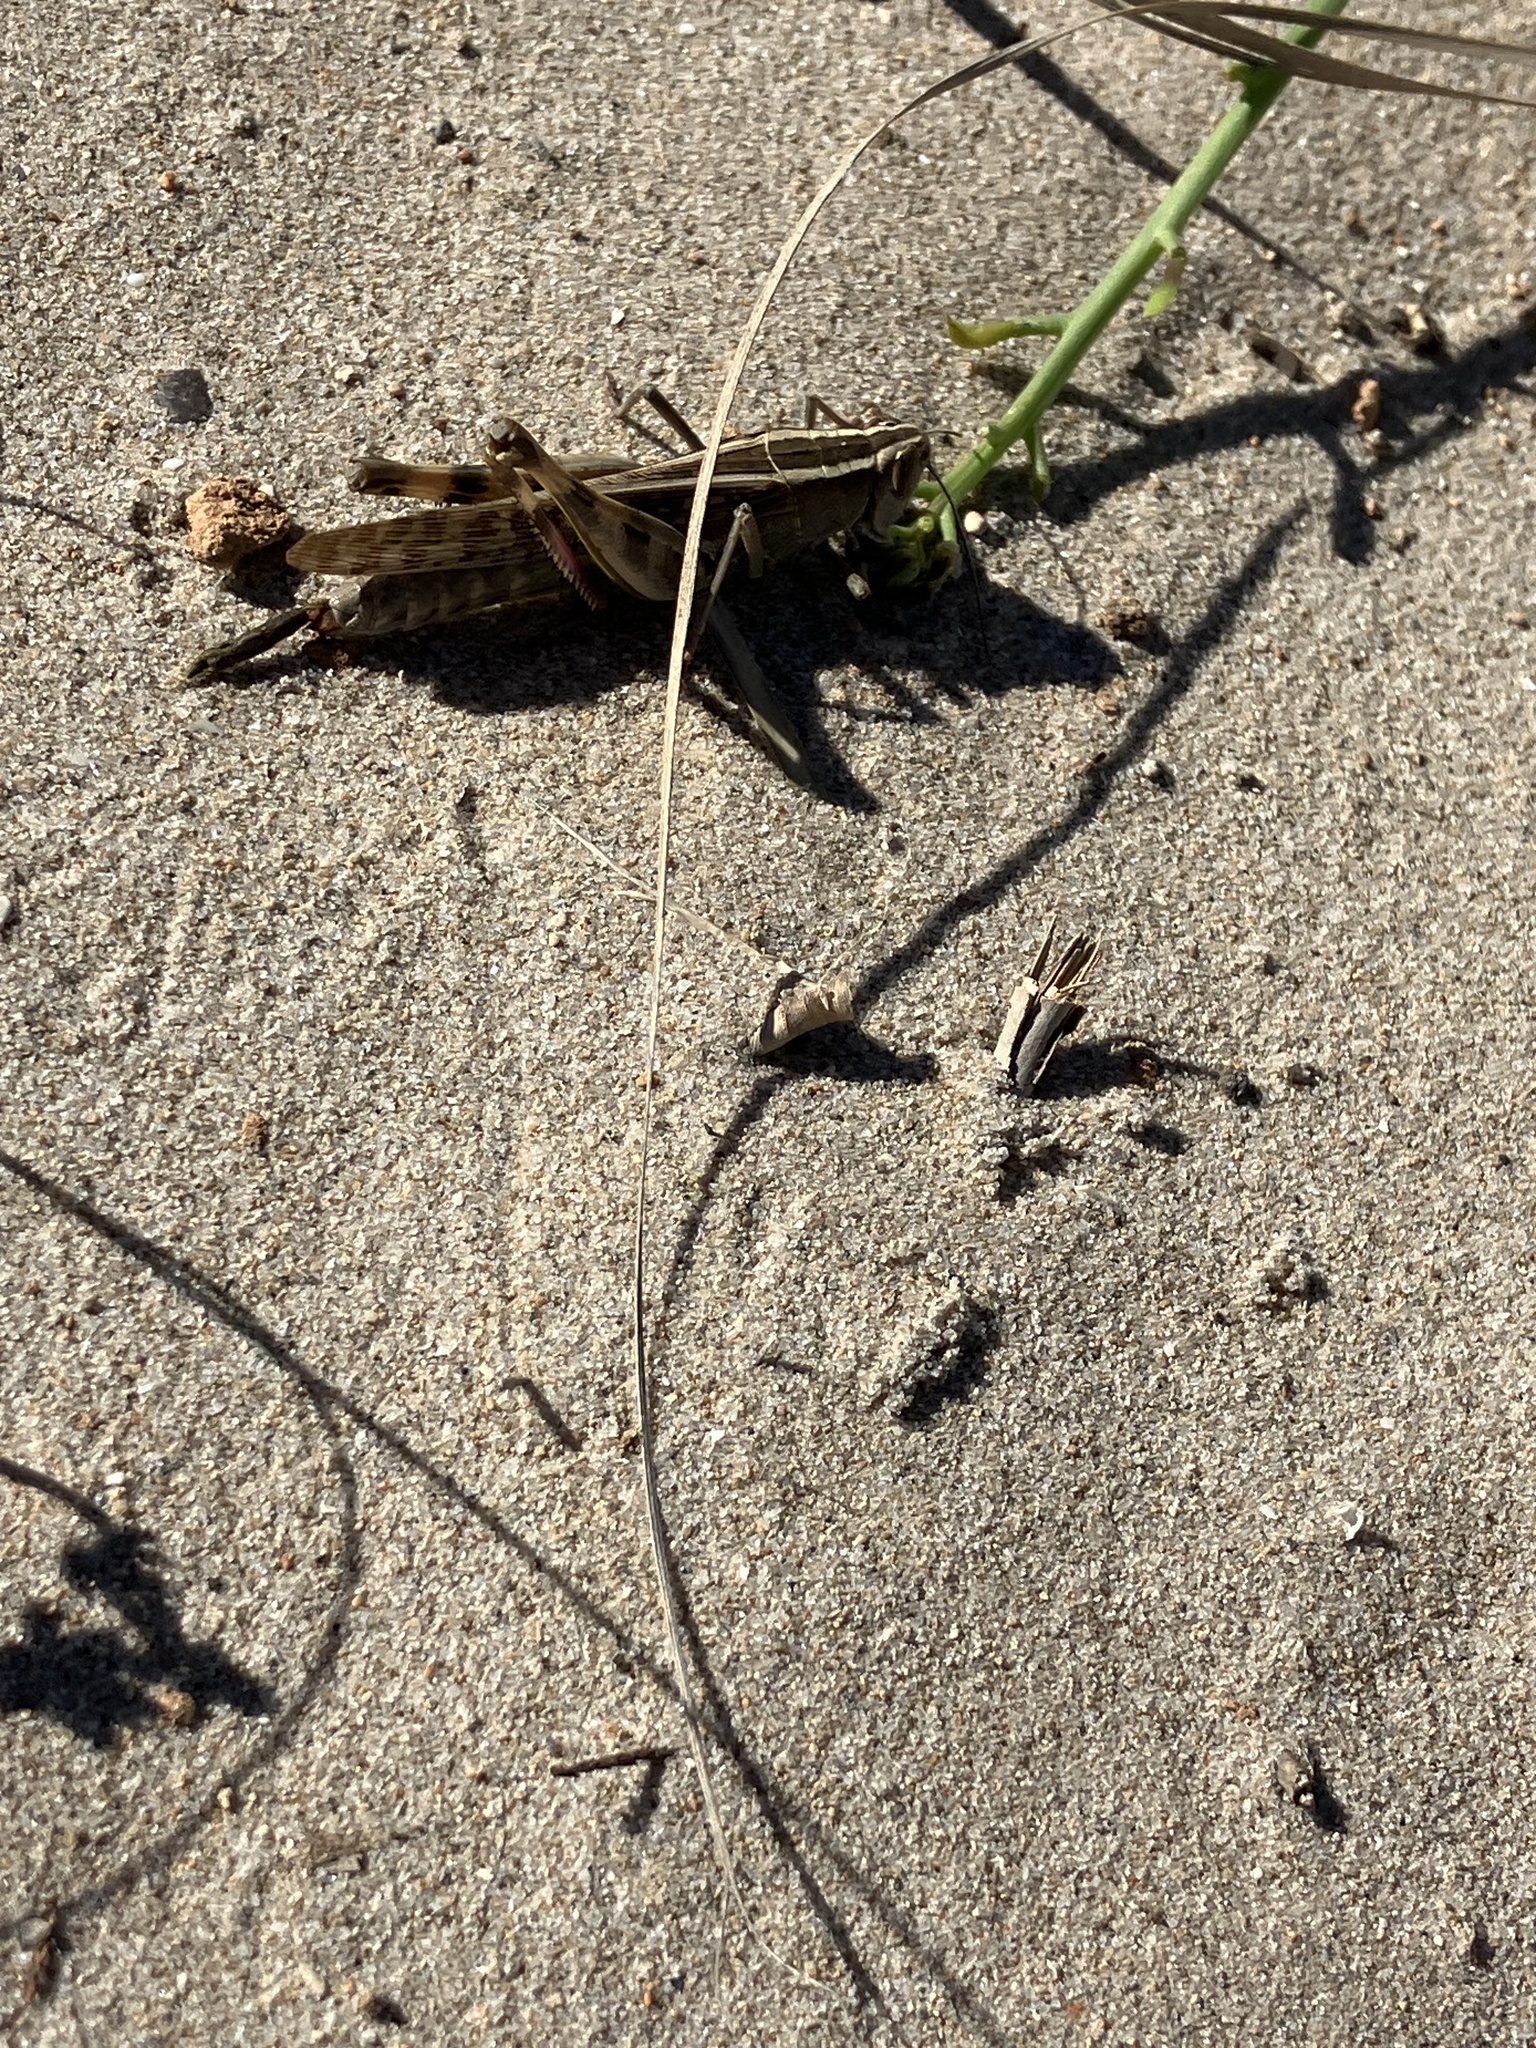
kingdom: Animalia
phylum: Arthropoda
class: Insecta
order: Orthoptera
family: Acrididae
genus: Heteracris
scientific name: Heteracris littoralis
